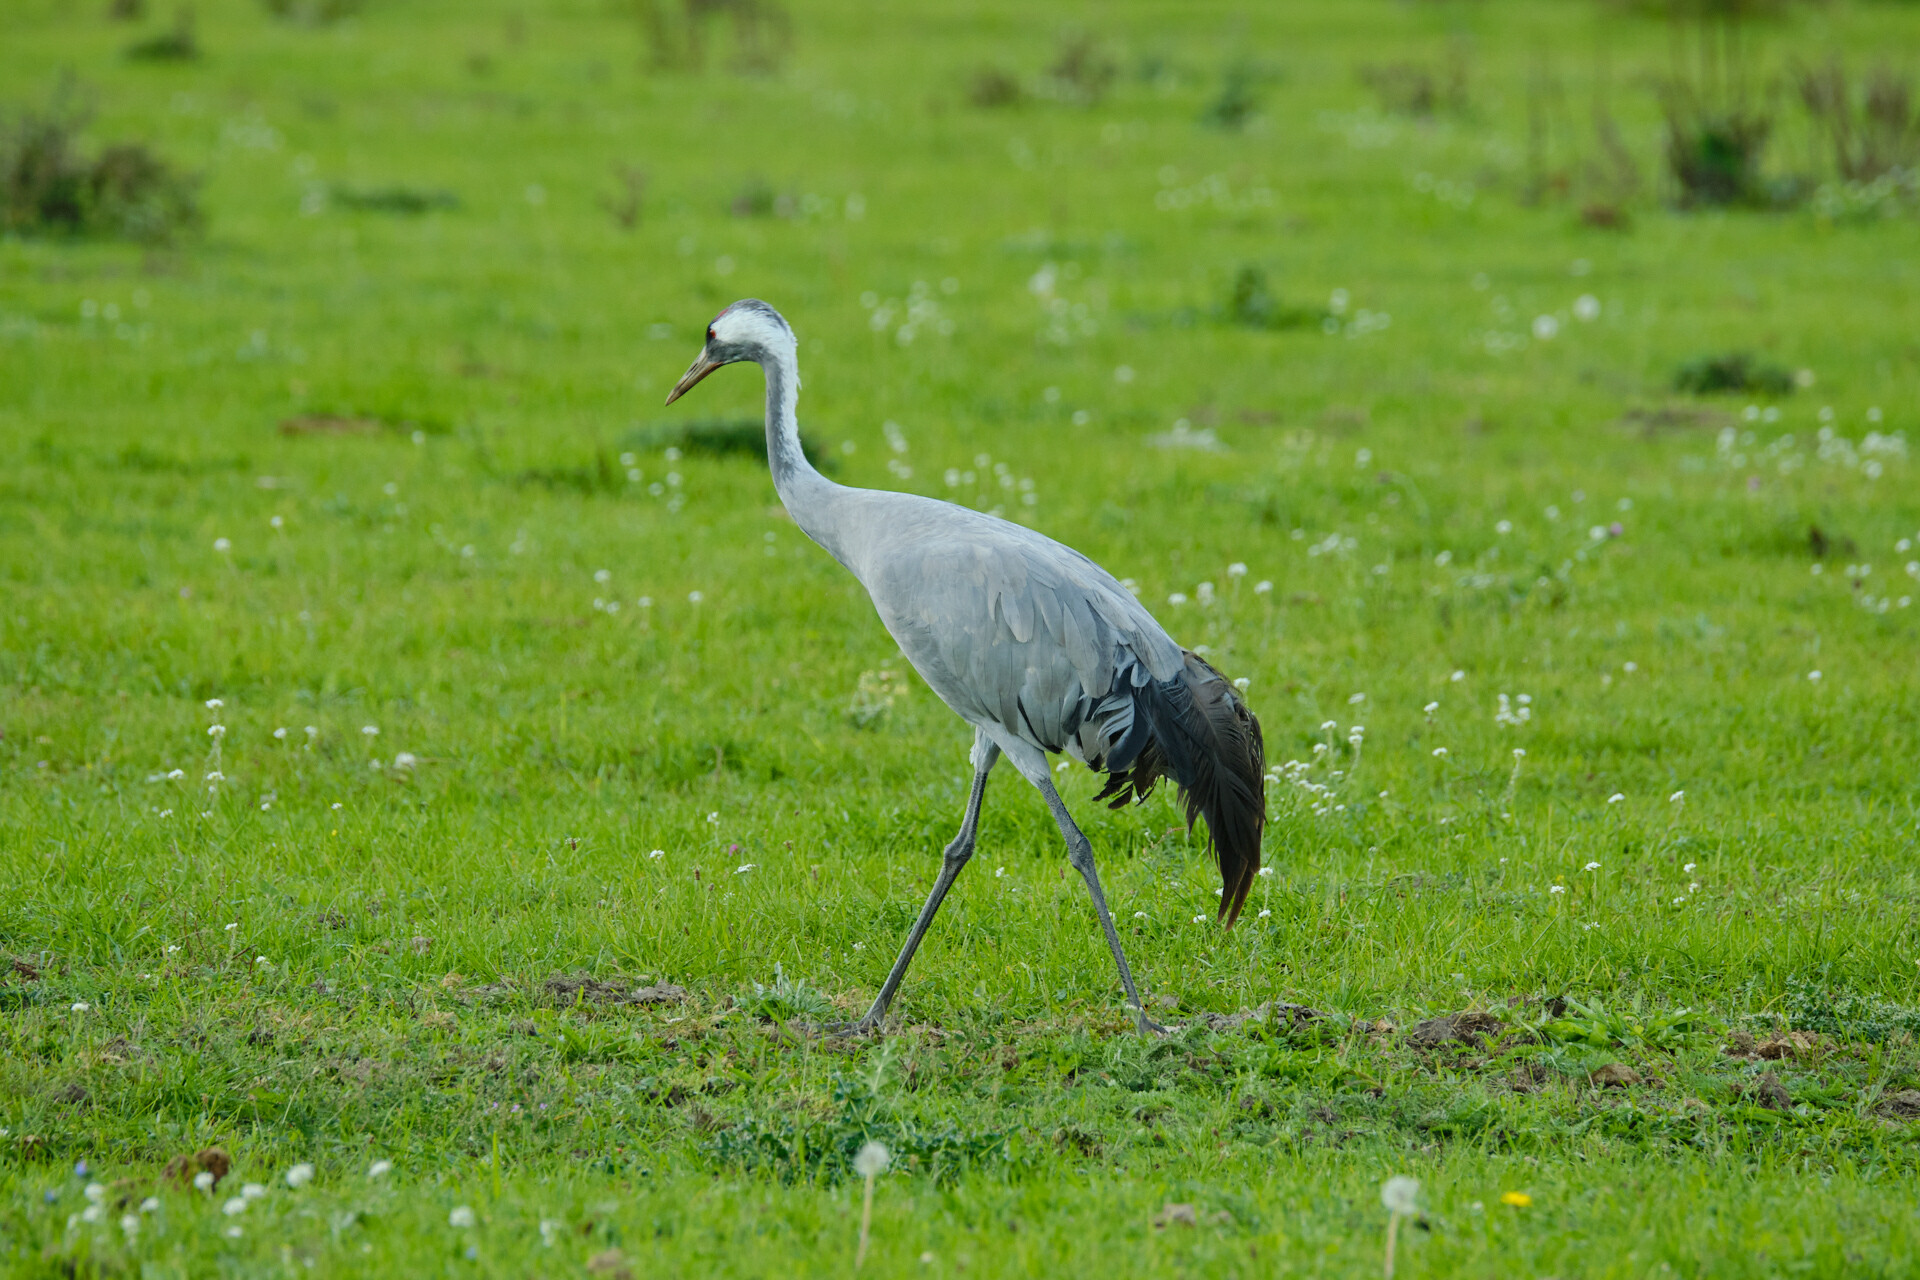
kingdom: Animalia
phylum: Chordata
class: Aves
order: Gruiformes
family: Gruidae
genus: Grus
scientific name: Grus grus
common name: Common crane
